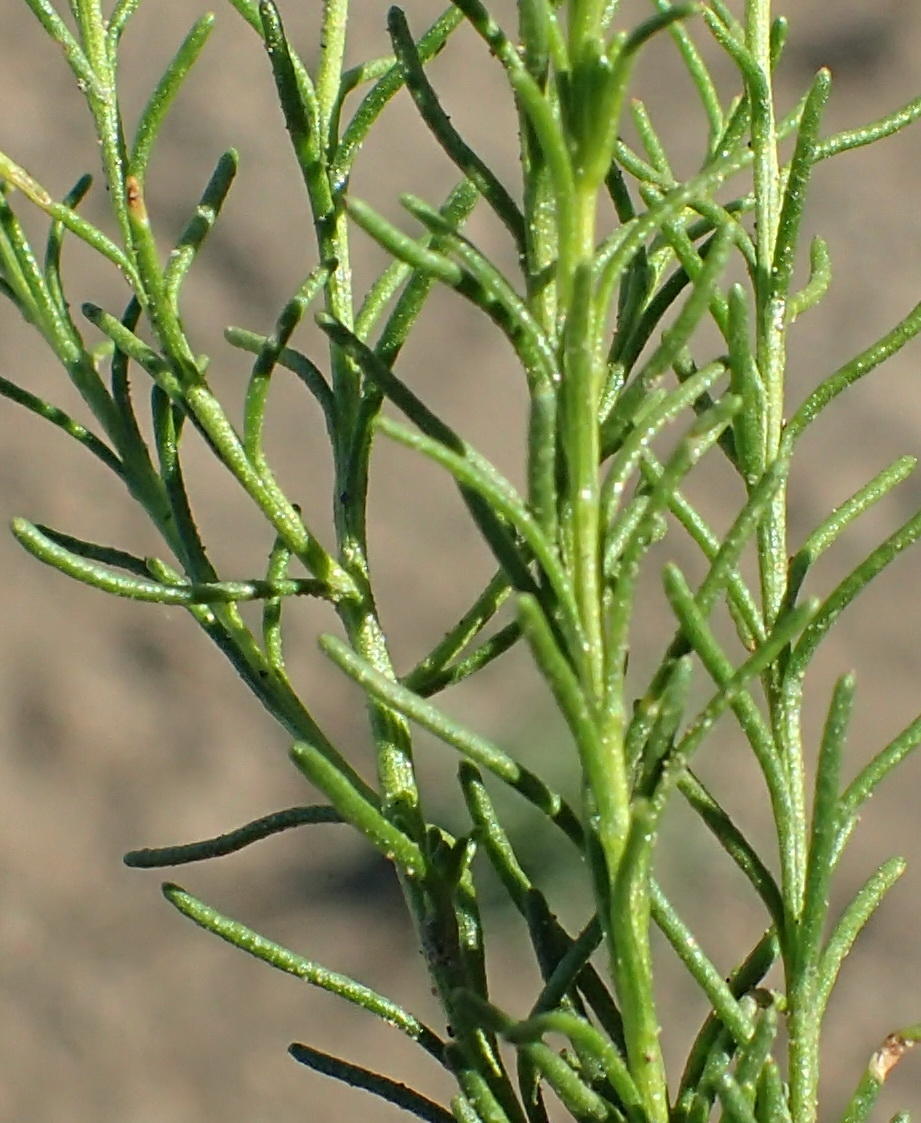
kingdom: Plantae
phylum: Tracheophyta
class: Magnoliopsida
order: Asterales
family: Asteraceae
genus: Chrysocoma
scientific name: Chrysocoma ciliata
